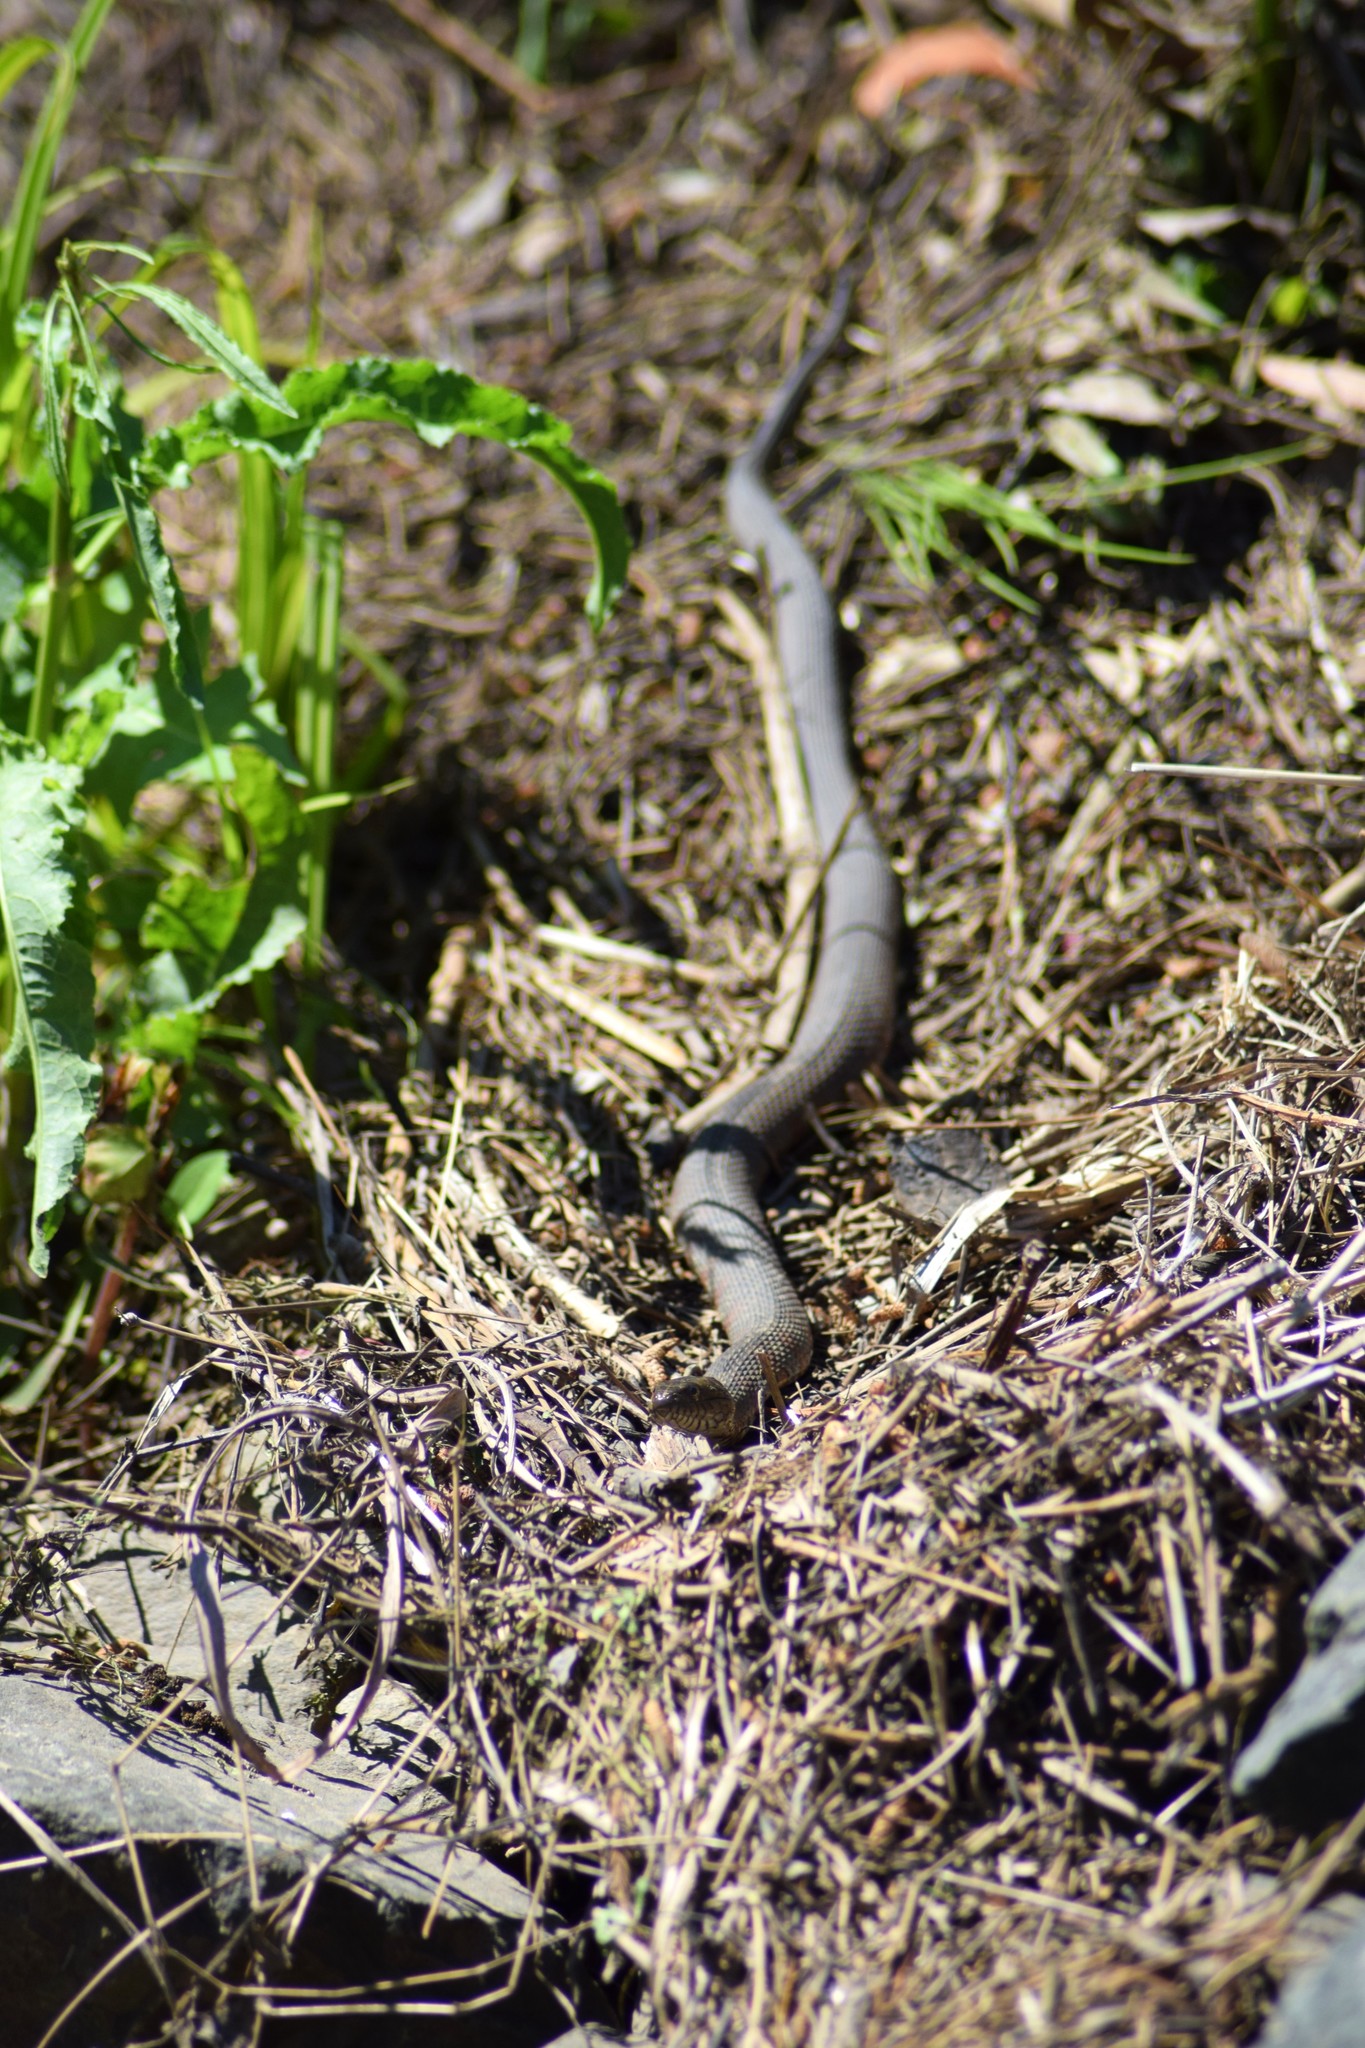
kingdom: Animalia
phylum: Chordata
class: Squamata
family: Colubridae
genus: Nerodia
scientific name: Nerodia sipedon
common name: Northern water snake
